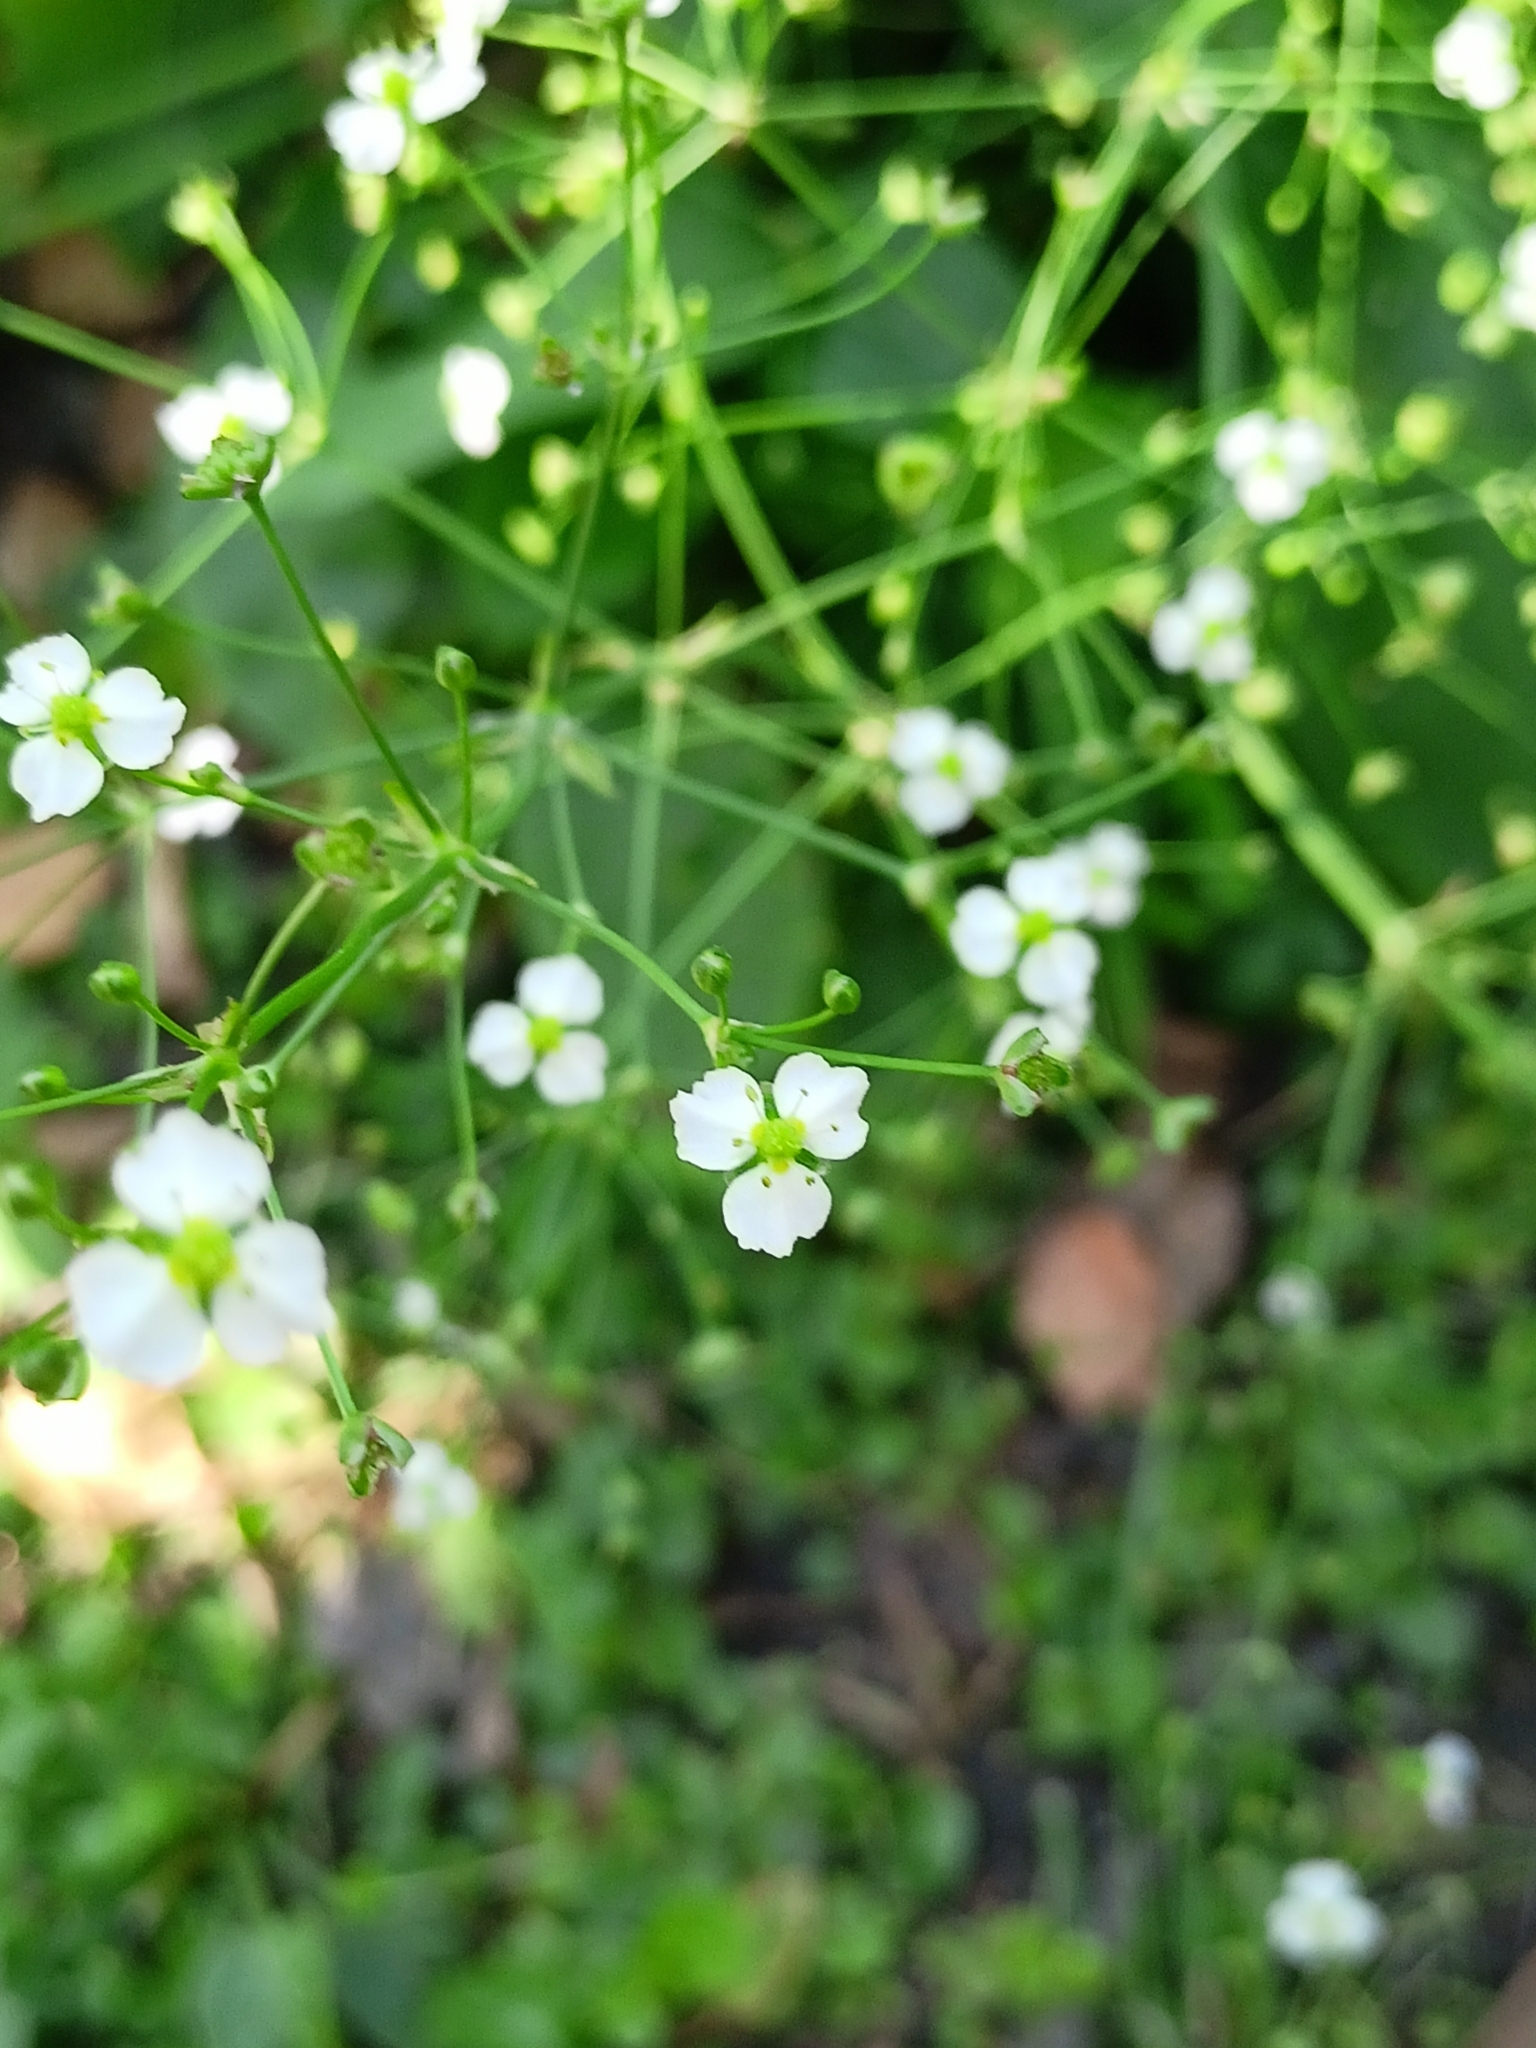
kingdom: Plantae
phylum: Tracheophyta
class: Liliopsida
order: Alismatales
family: Alismataceae
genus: Alisma
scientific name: Alisma plantago-aquatica
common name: Water-plantain
